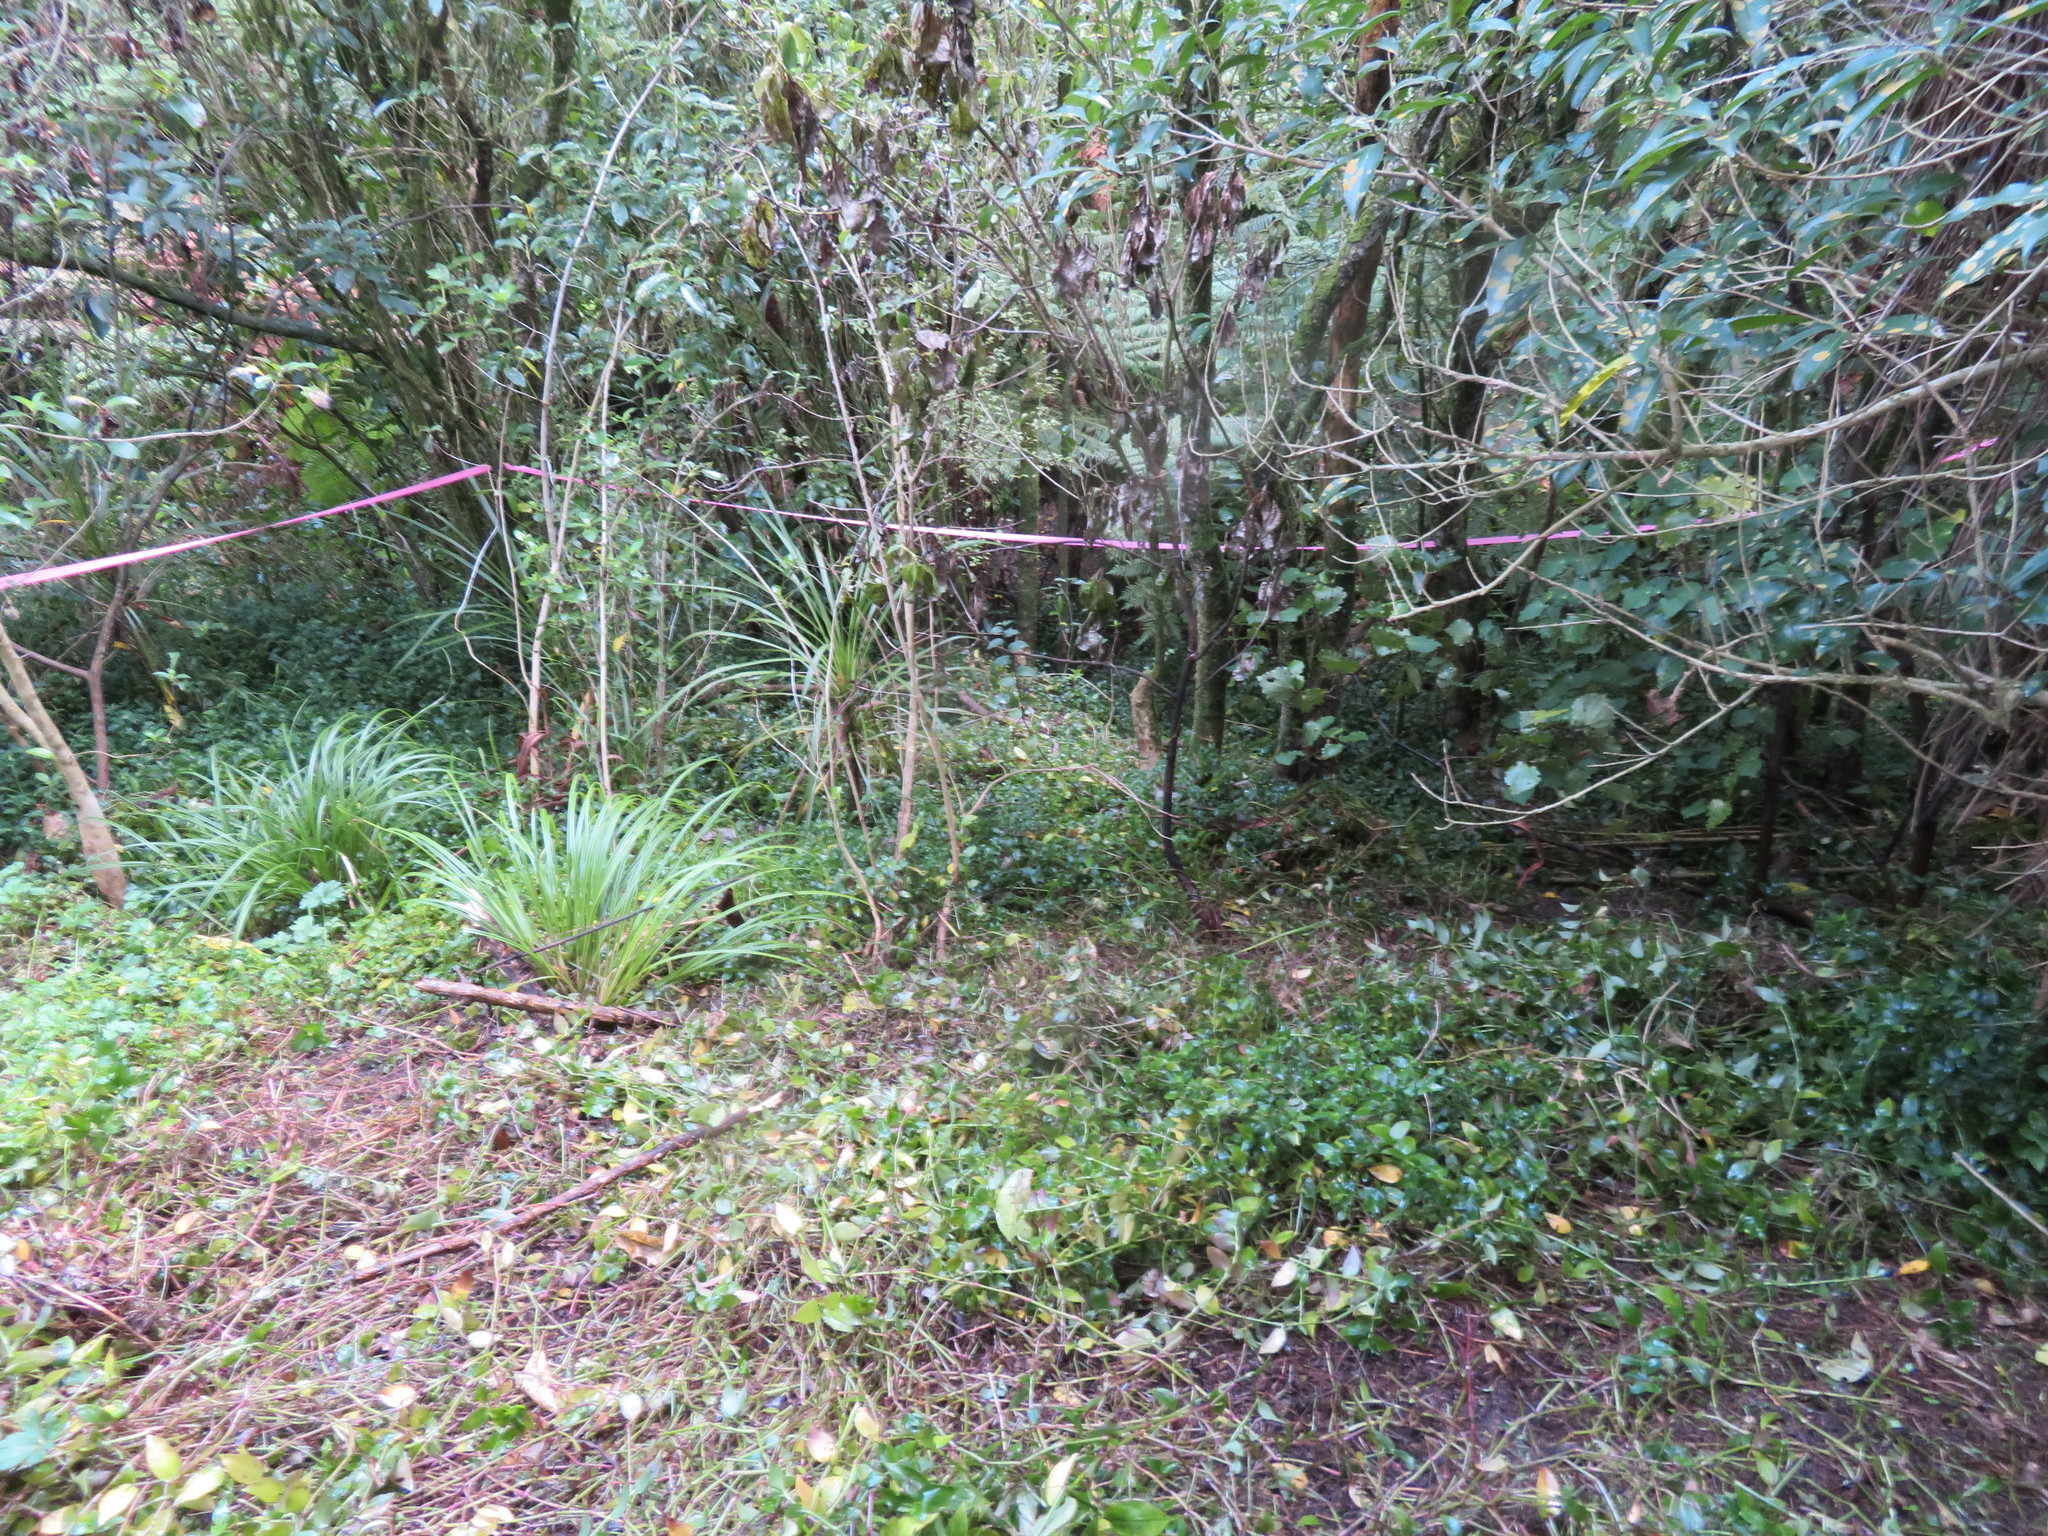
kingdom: Plantae
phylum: Tracheophyta
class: Liliopsida
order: Commelinales
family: Commelinaceae
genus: Tradescantia
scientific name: Tradescantia fluminensis
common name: Wandering-jew
